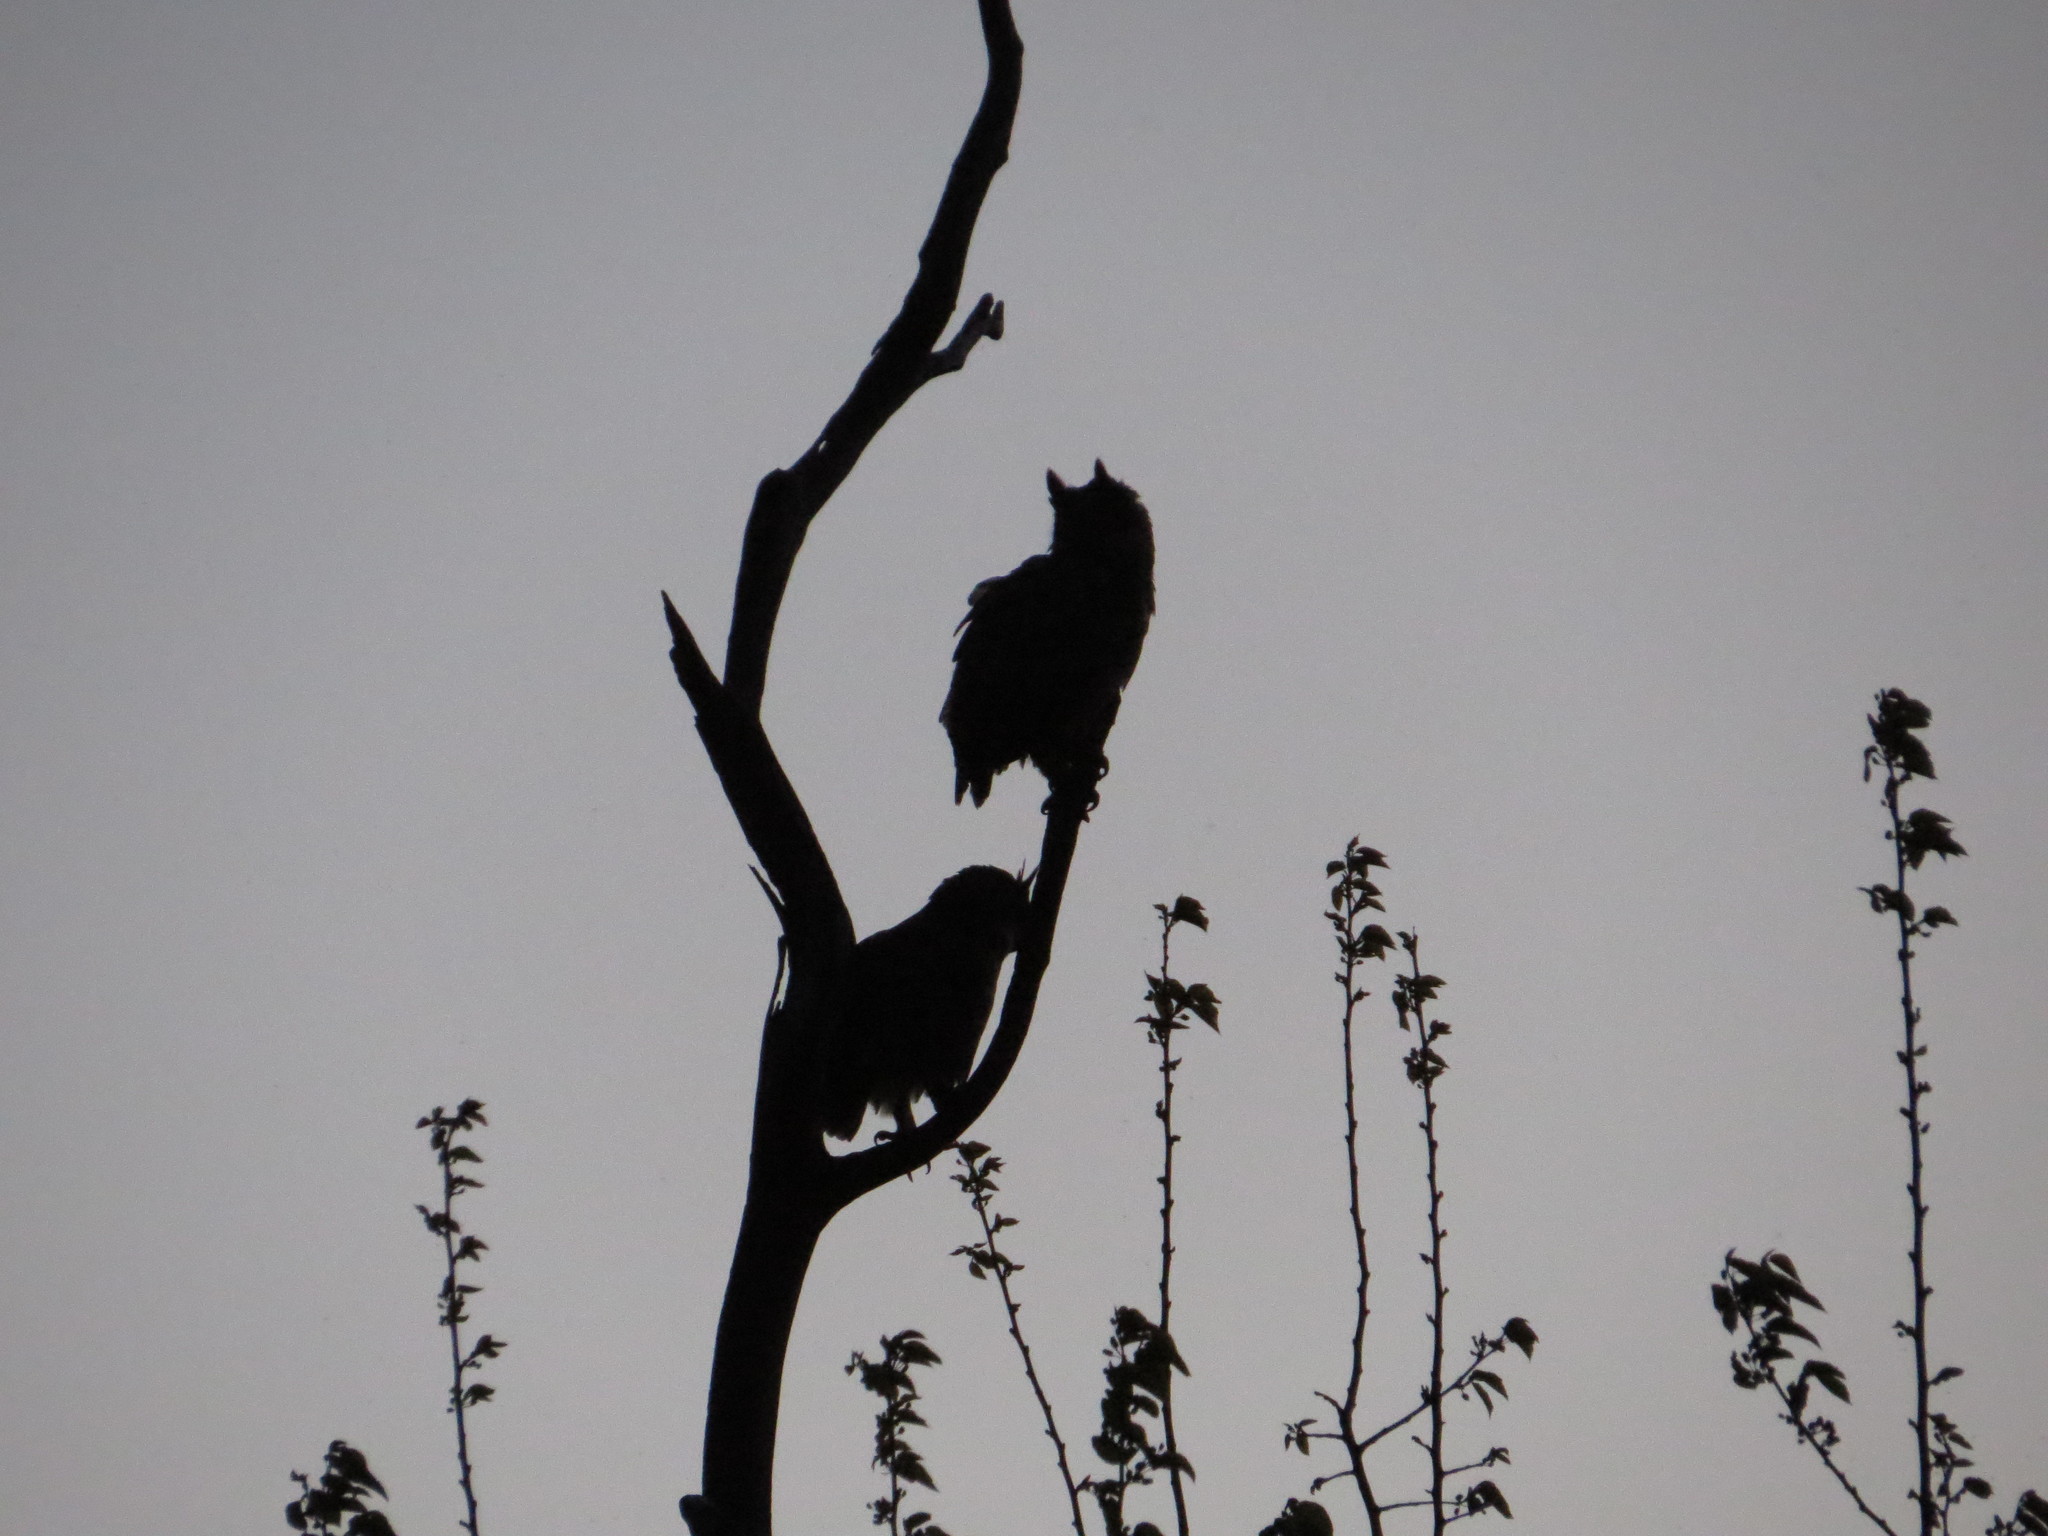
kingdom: Animalia
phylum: Chordata
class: Aves
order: Strigiformes
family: Strigidae
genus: Bubo
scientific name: Bubo virginianus
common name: Great horned owl
